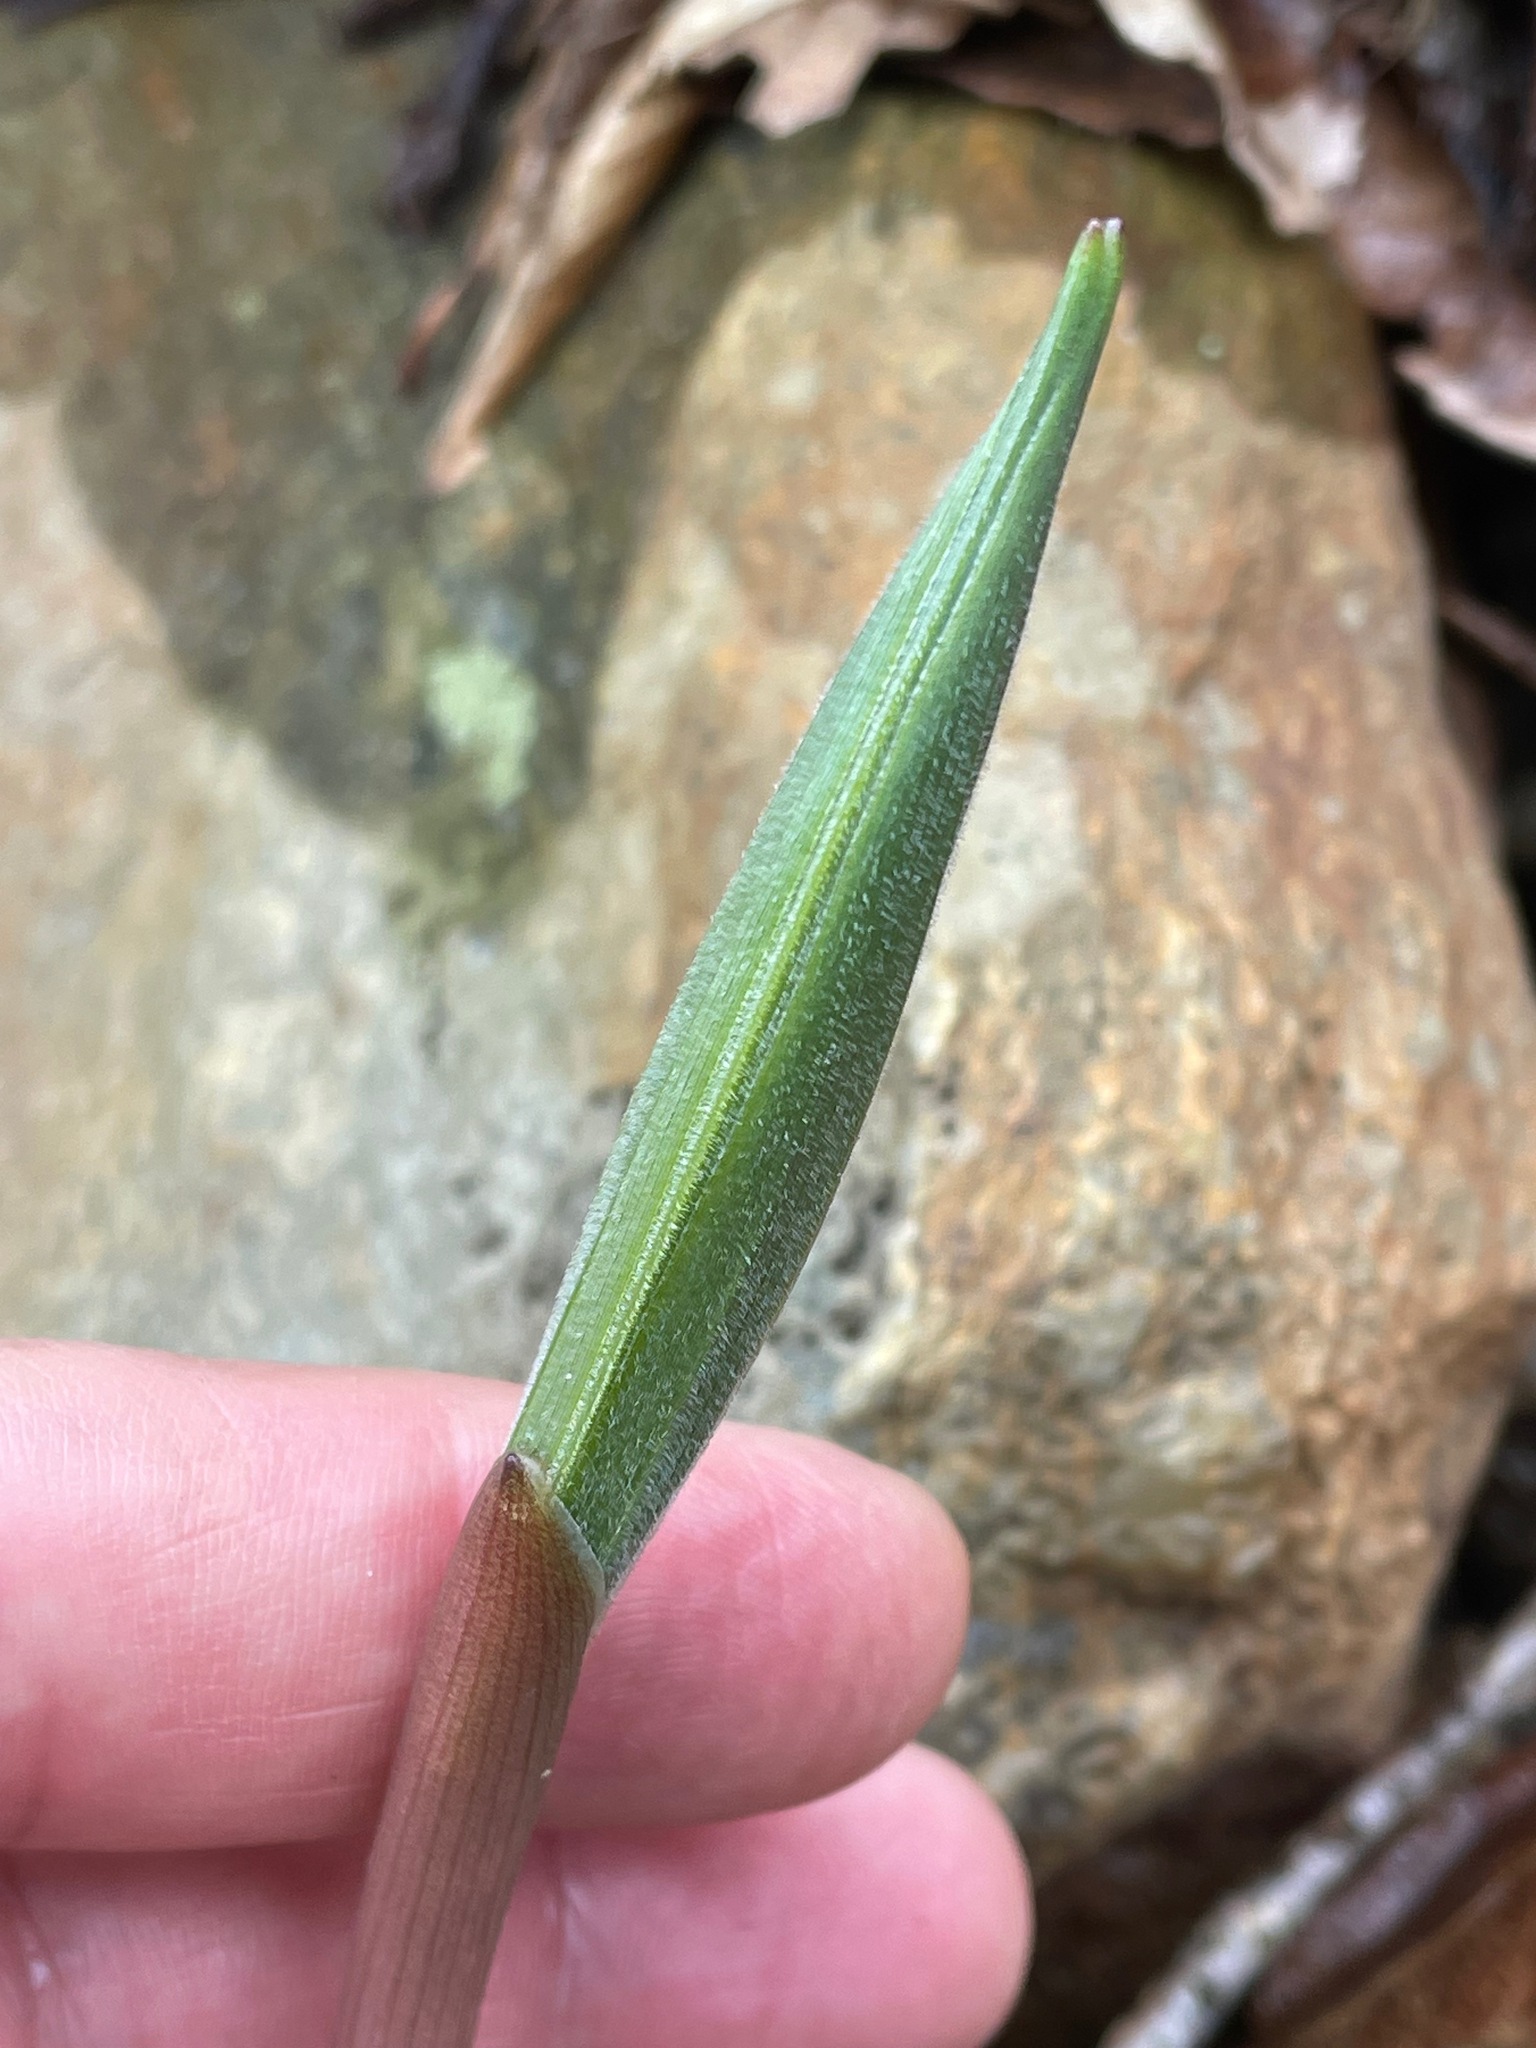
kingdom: Plantae
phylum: Tracheophyta
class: Liliopsida
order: Asparagales
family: Asparagaceae
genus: Maianthemum
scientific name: Maianthemum racemosum
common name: False spikenard
